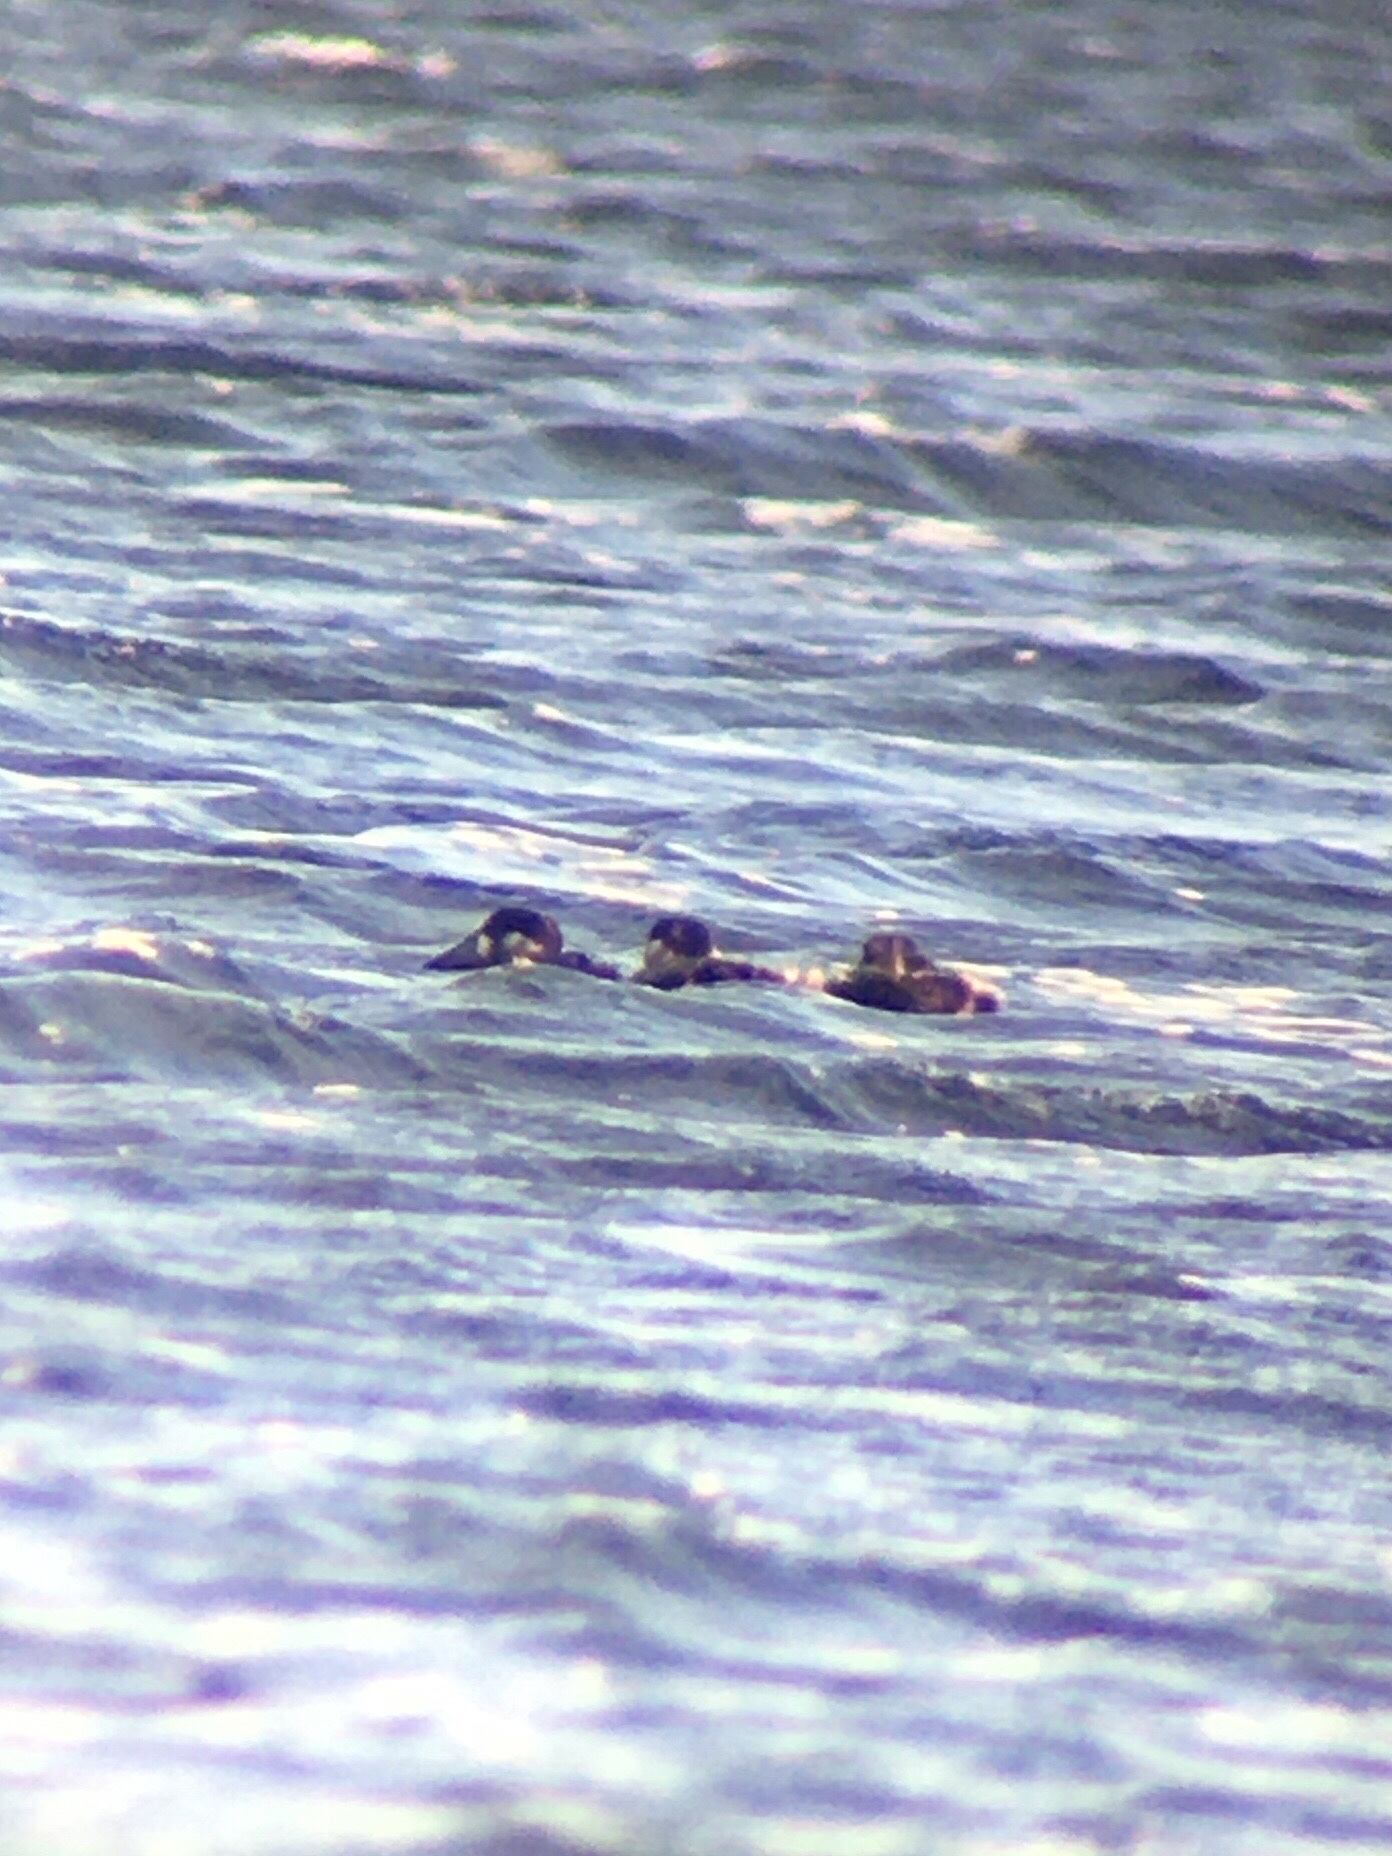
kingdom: Animalia
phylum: Chordata
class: Aves
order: Anseriformes
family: Anatidae
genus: Melanitta
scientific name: Melanitta perspicillata
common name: Surf scoter
